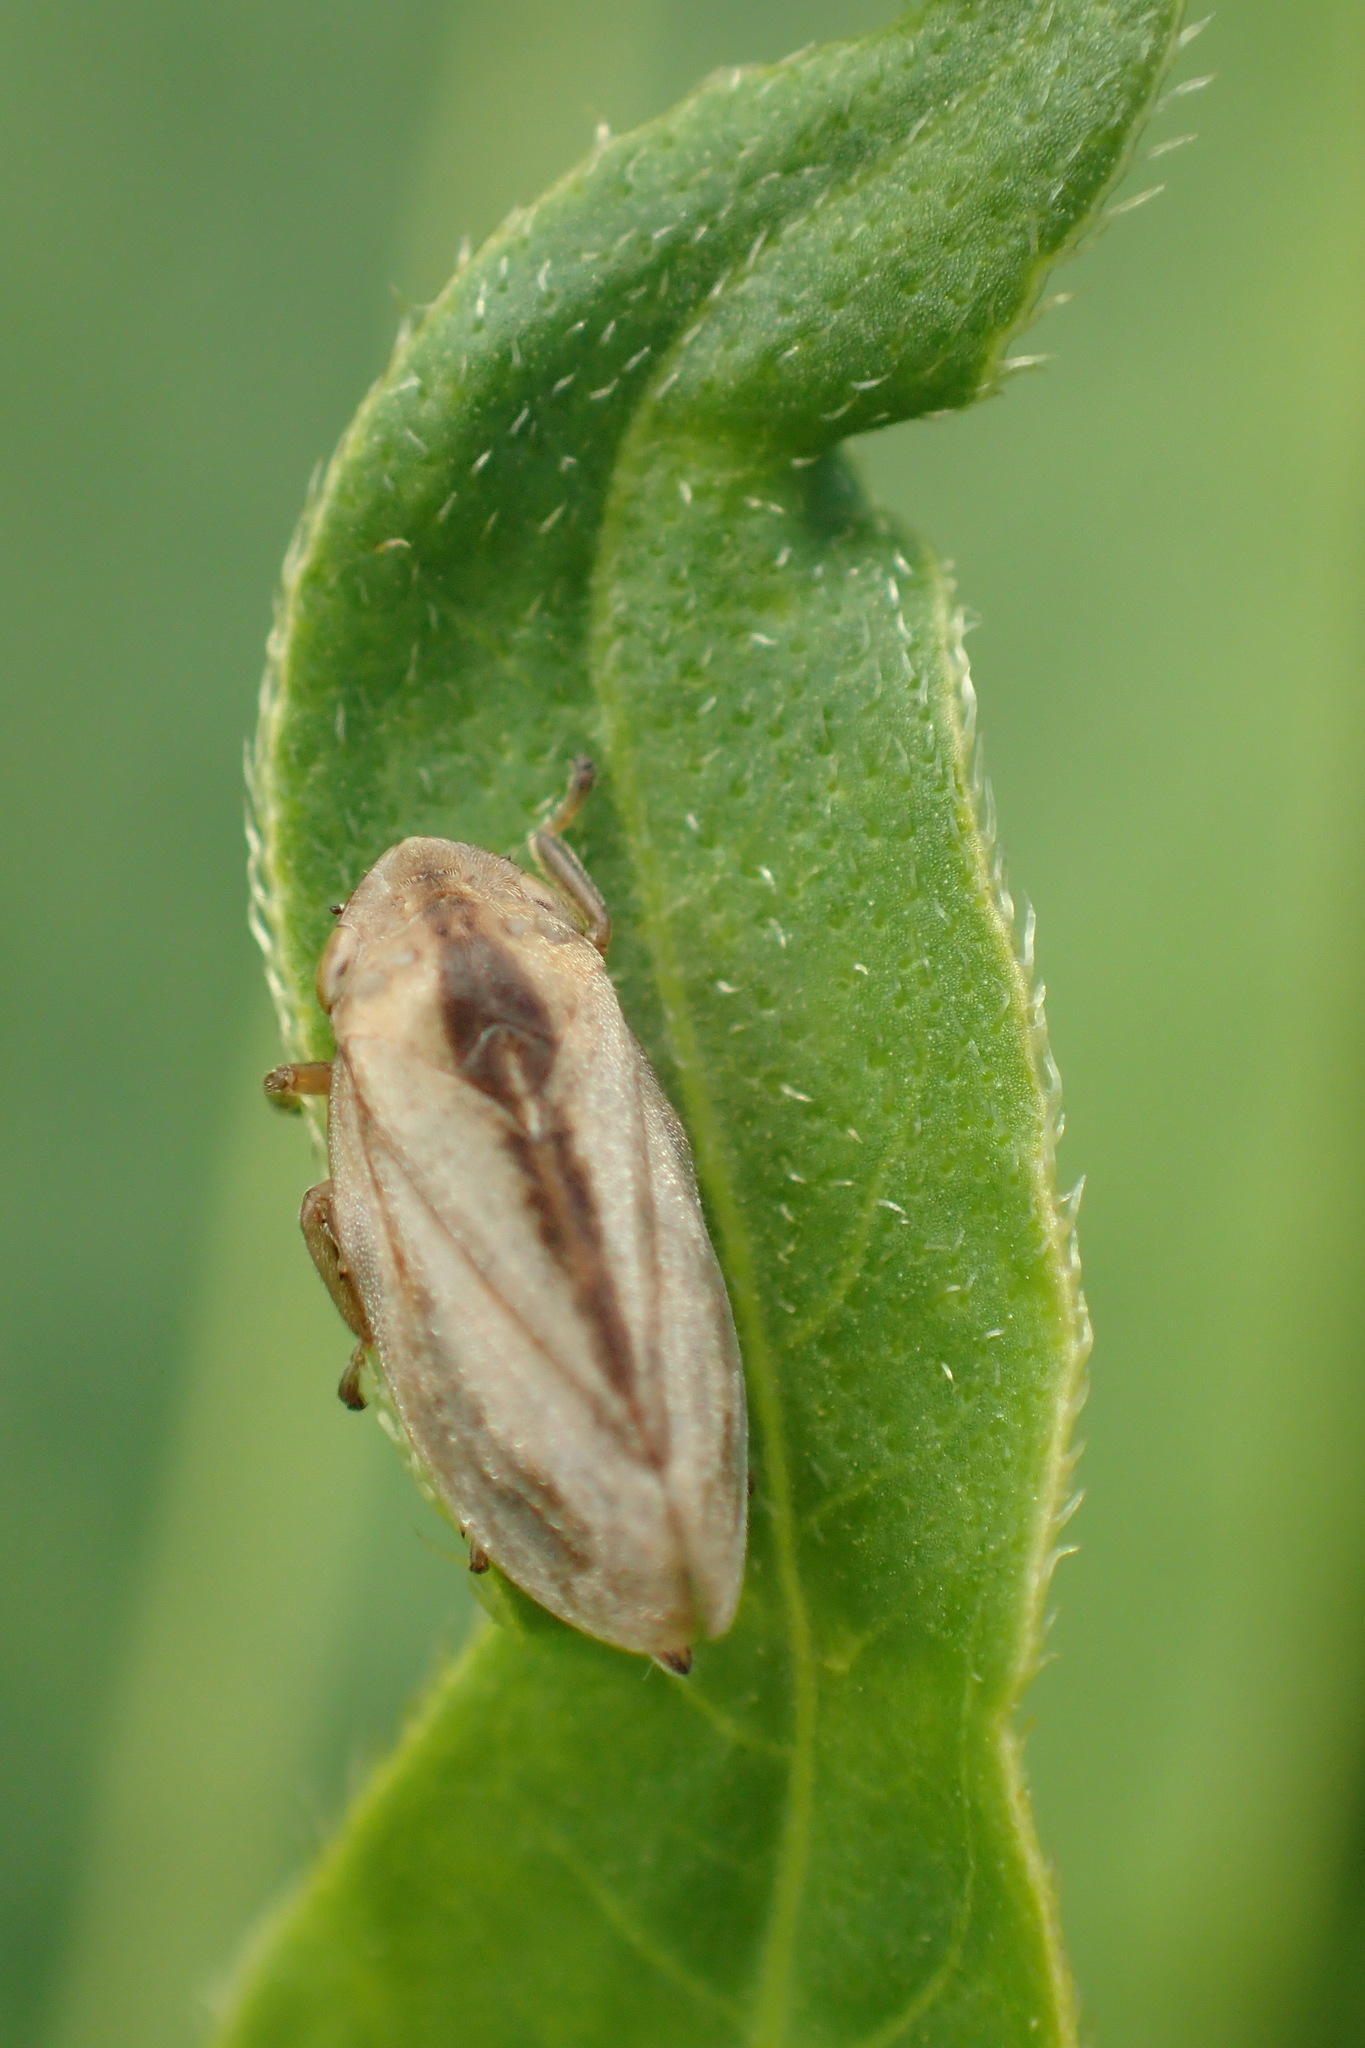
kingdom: Animalia
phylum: Arthropoda
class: Insecta
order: Hemiptera
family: Aphrophoridae
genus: Philaenus
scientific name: Philaenus spumarius
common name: Meadow spittlebug
